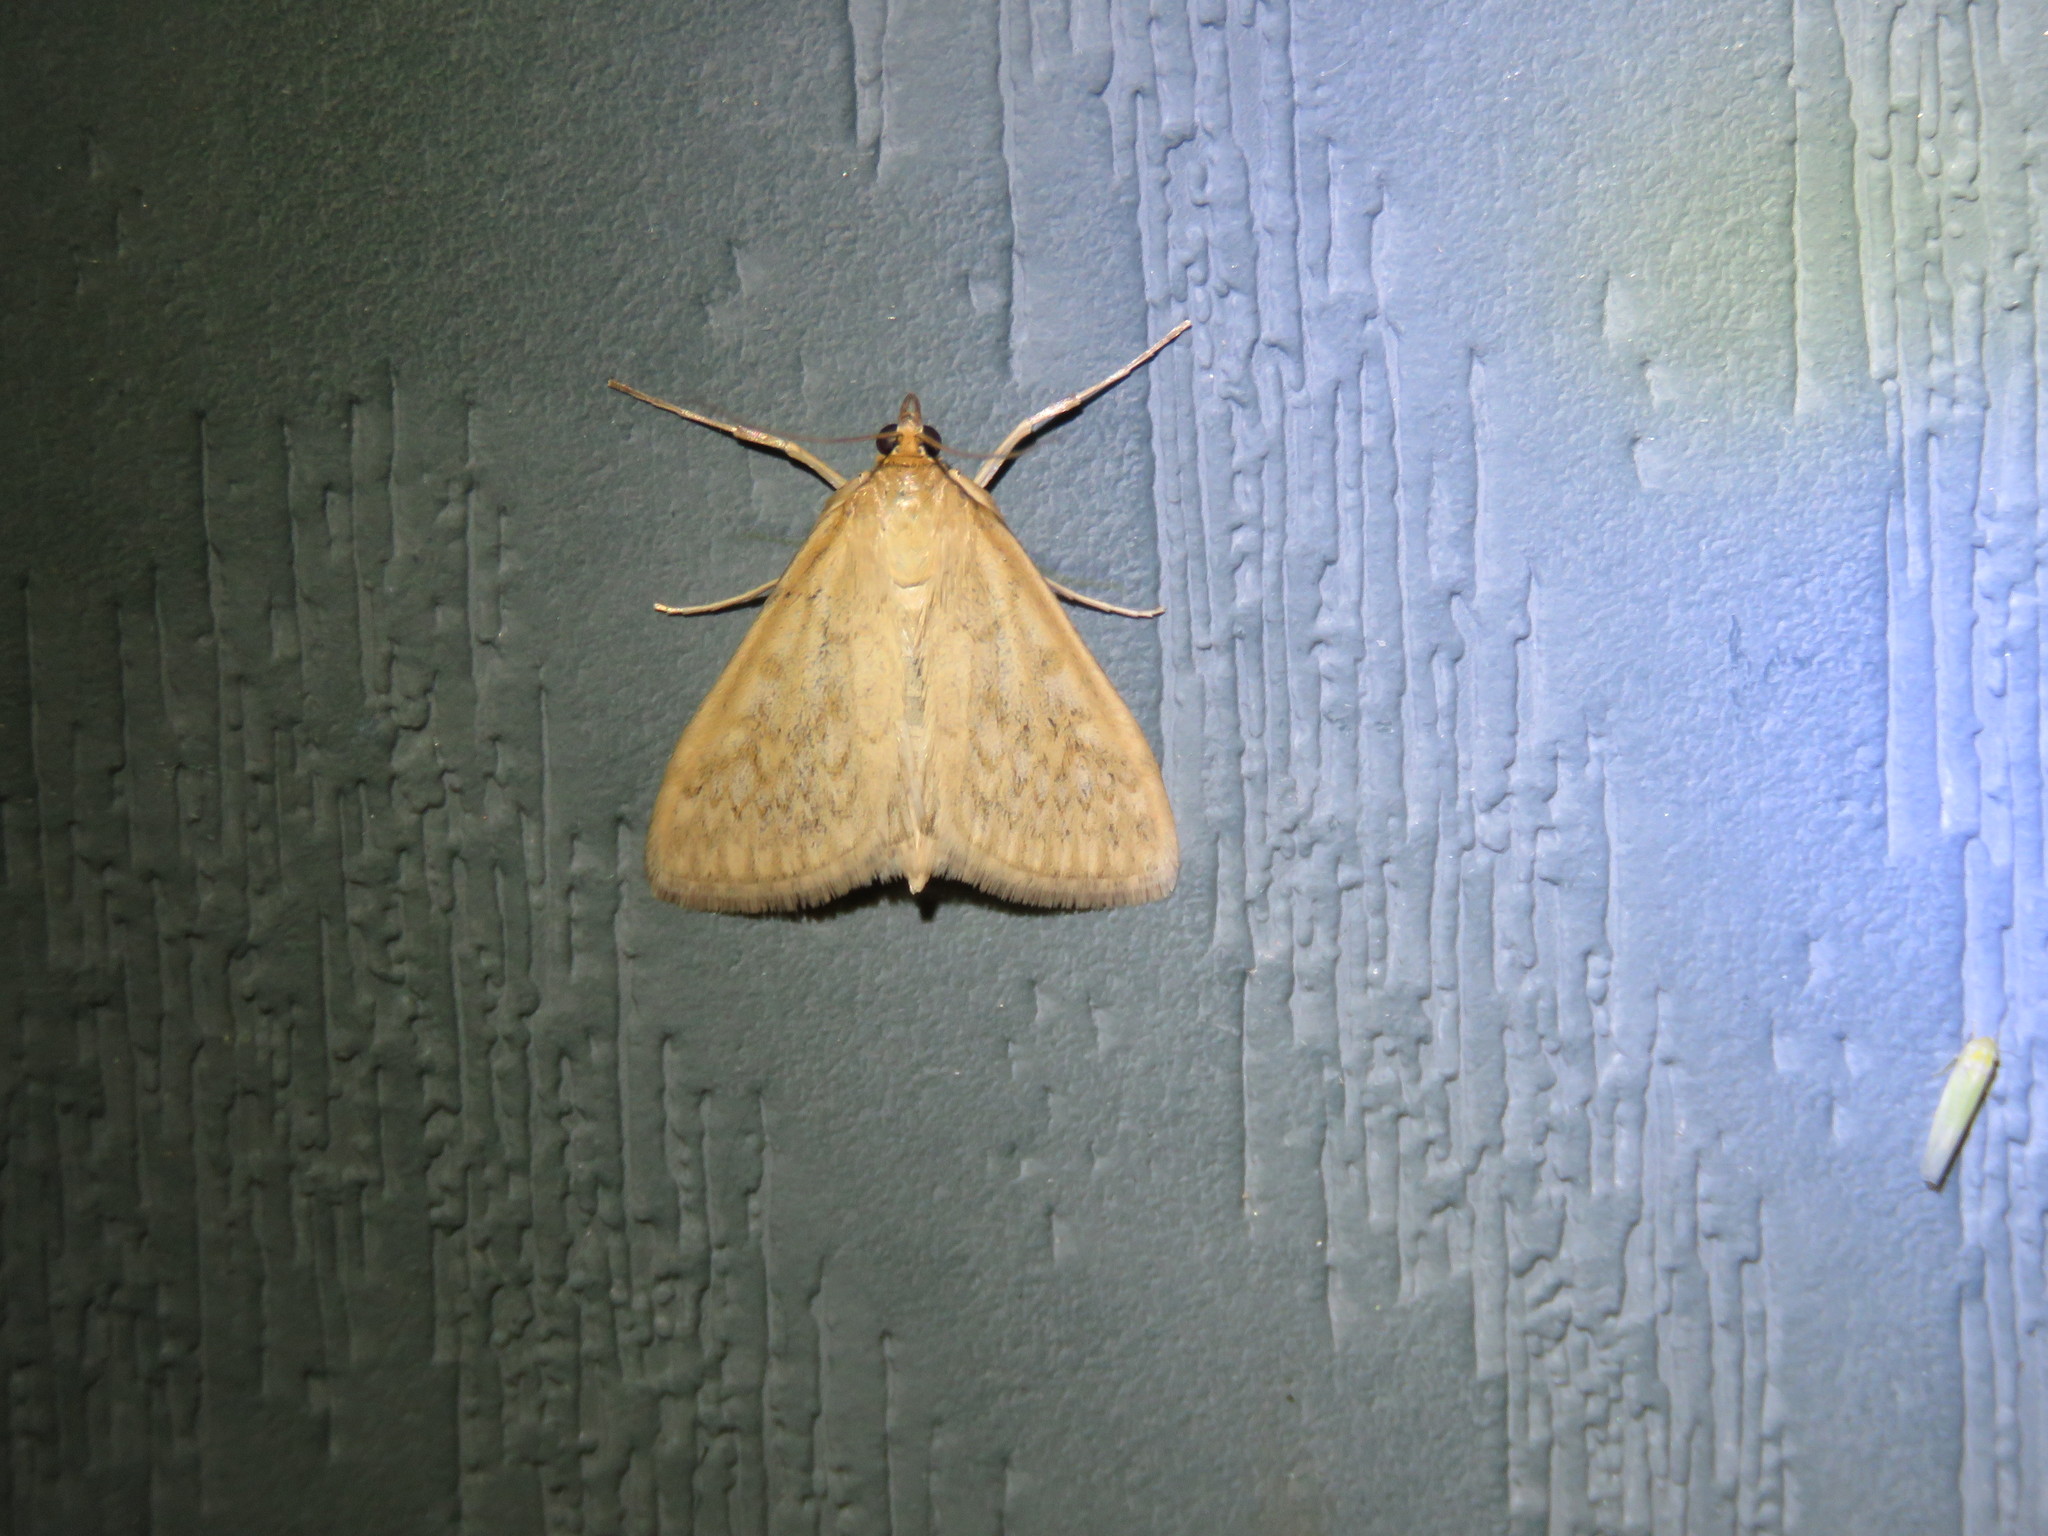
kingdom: Animalia
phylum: Arthropoda
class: Insecta
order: Lepidoptera
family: Crambidae
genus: Sitochroa
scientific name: Sitochroa chortalis
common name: Dimorphic sitochroa moth
